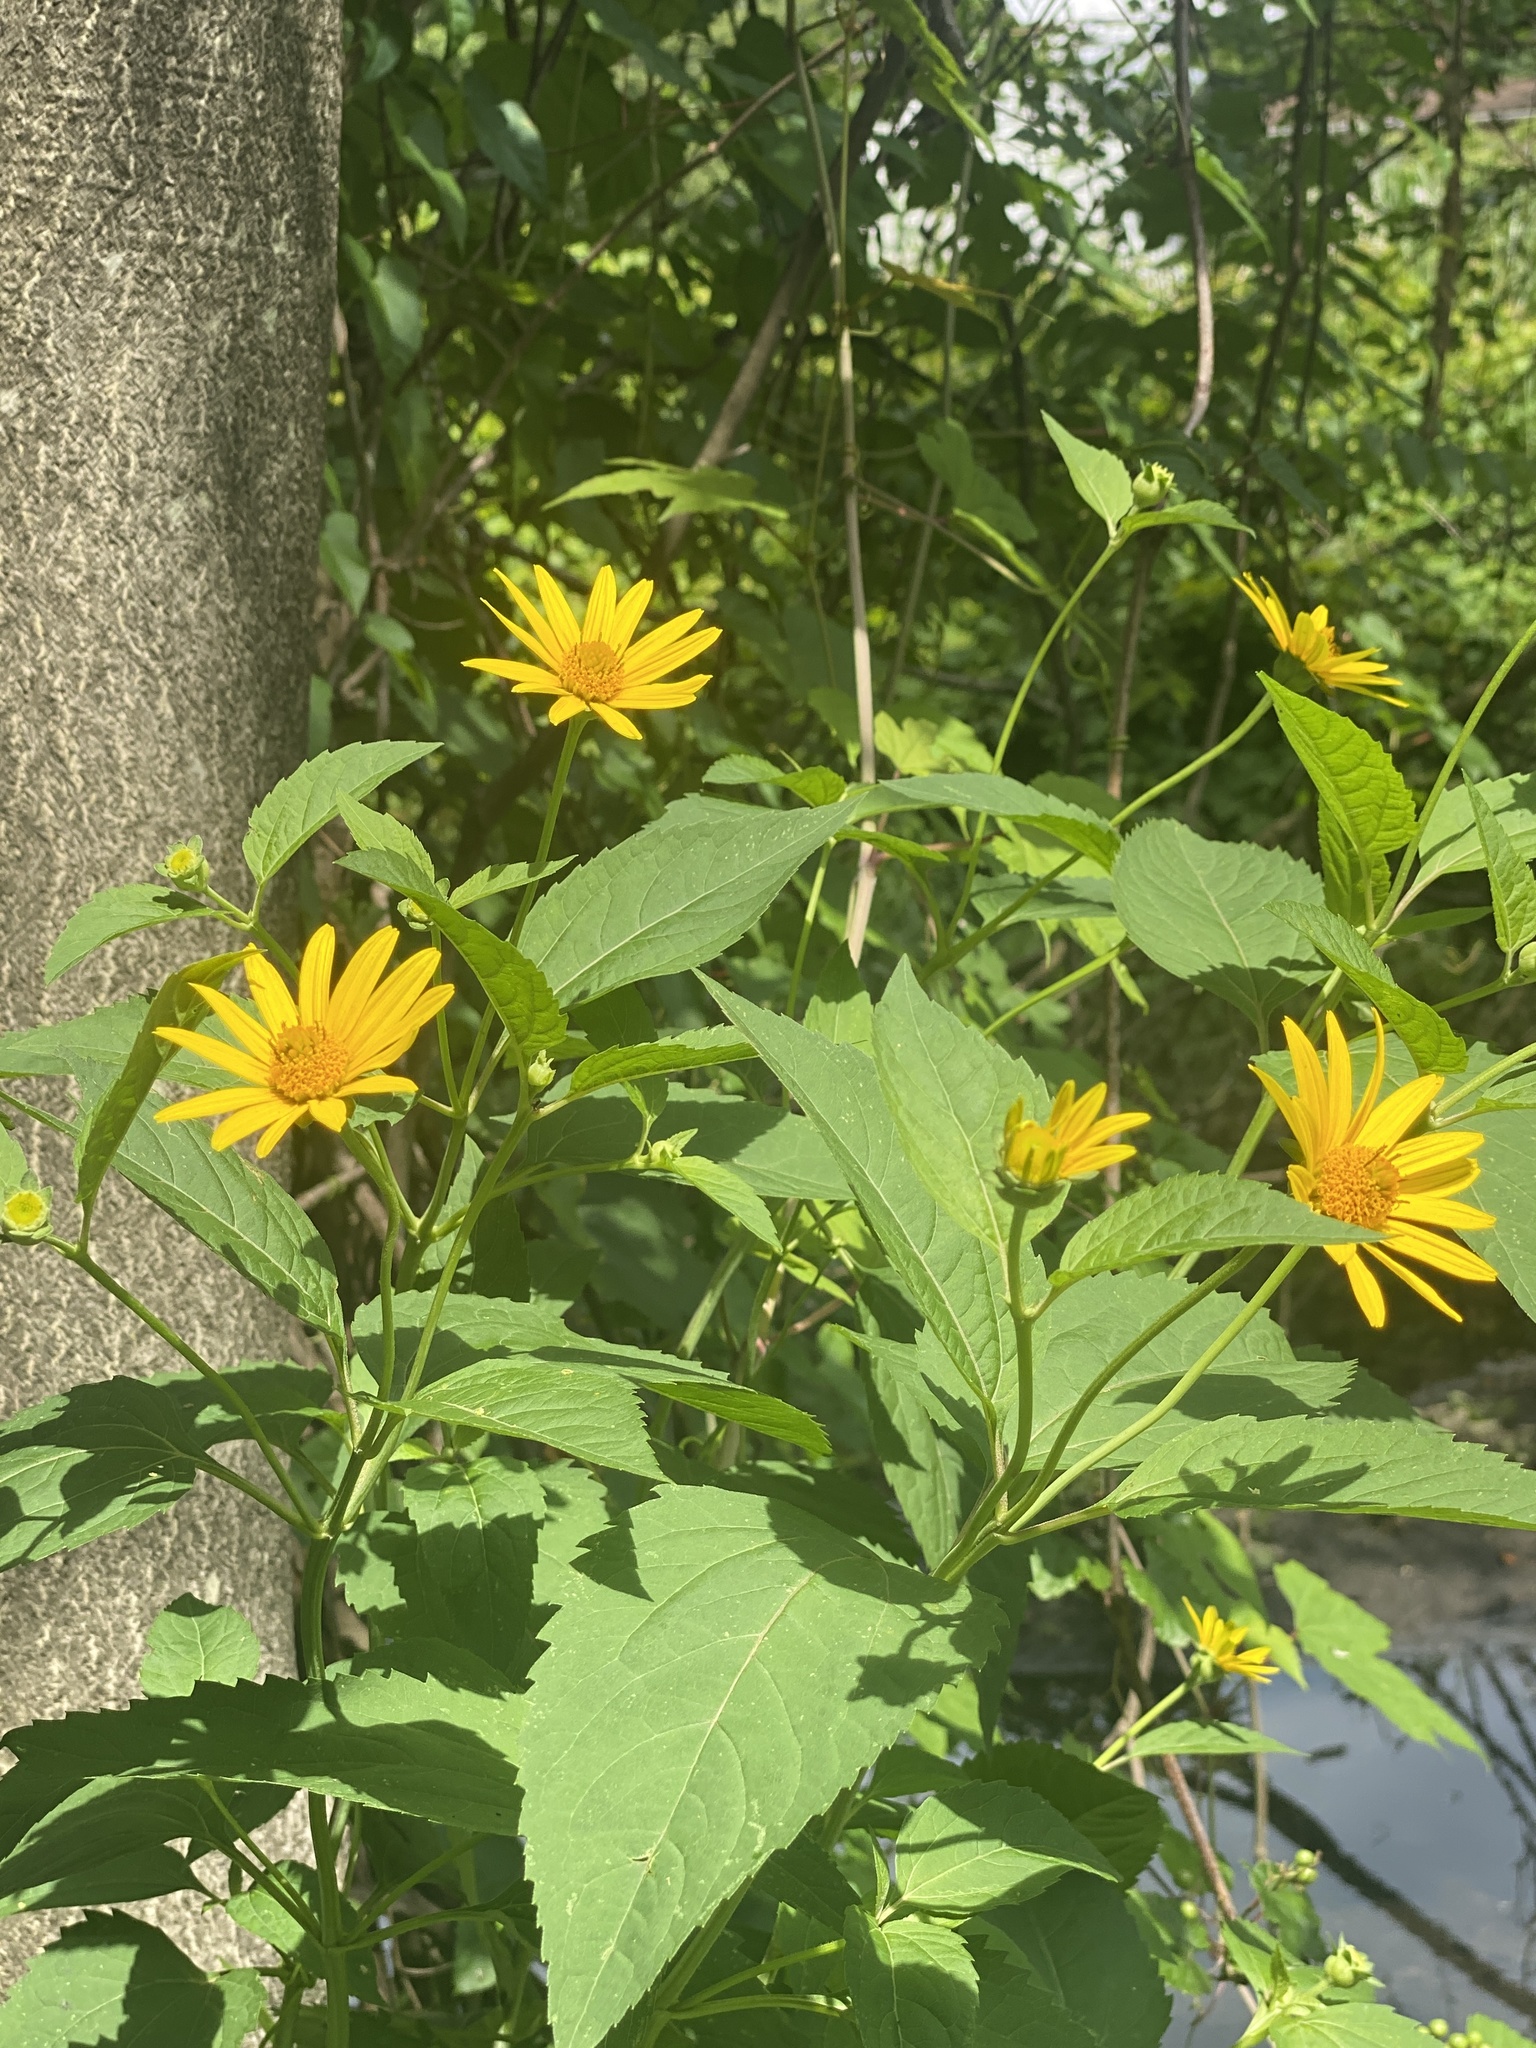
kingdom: Plantae
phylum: Tracheophyta
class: Magnoliopsida
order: Asterales
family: Asteraceae
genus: Heliopsis
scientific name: Heliopsis helianthoides
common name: False sunflower
